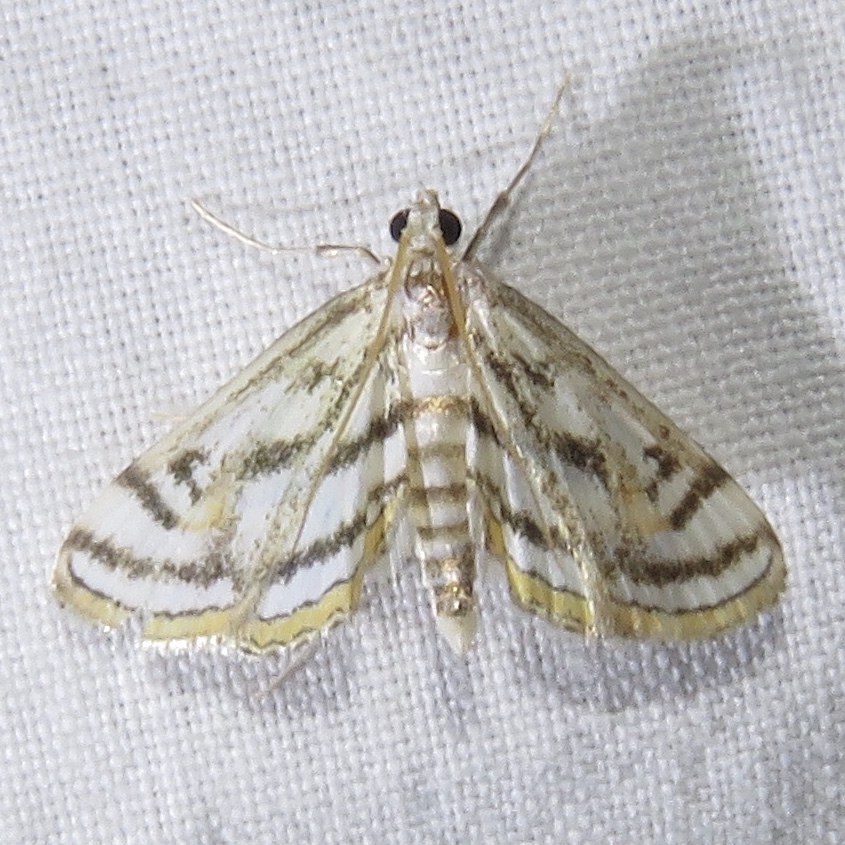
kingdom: Animalia
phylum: Arthropoda
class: Insecta
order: Lepidoptera
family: Crambidae
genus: Parapoynx
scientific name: Parapoynx badiusalis
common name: Chestnut-marked pondweed moth
